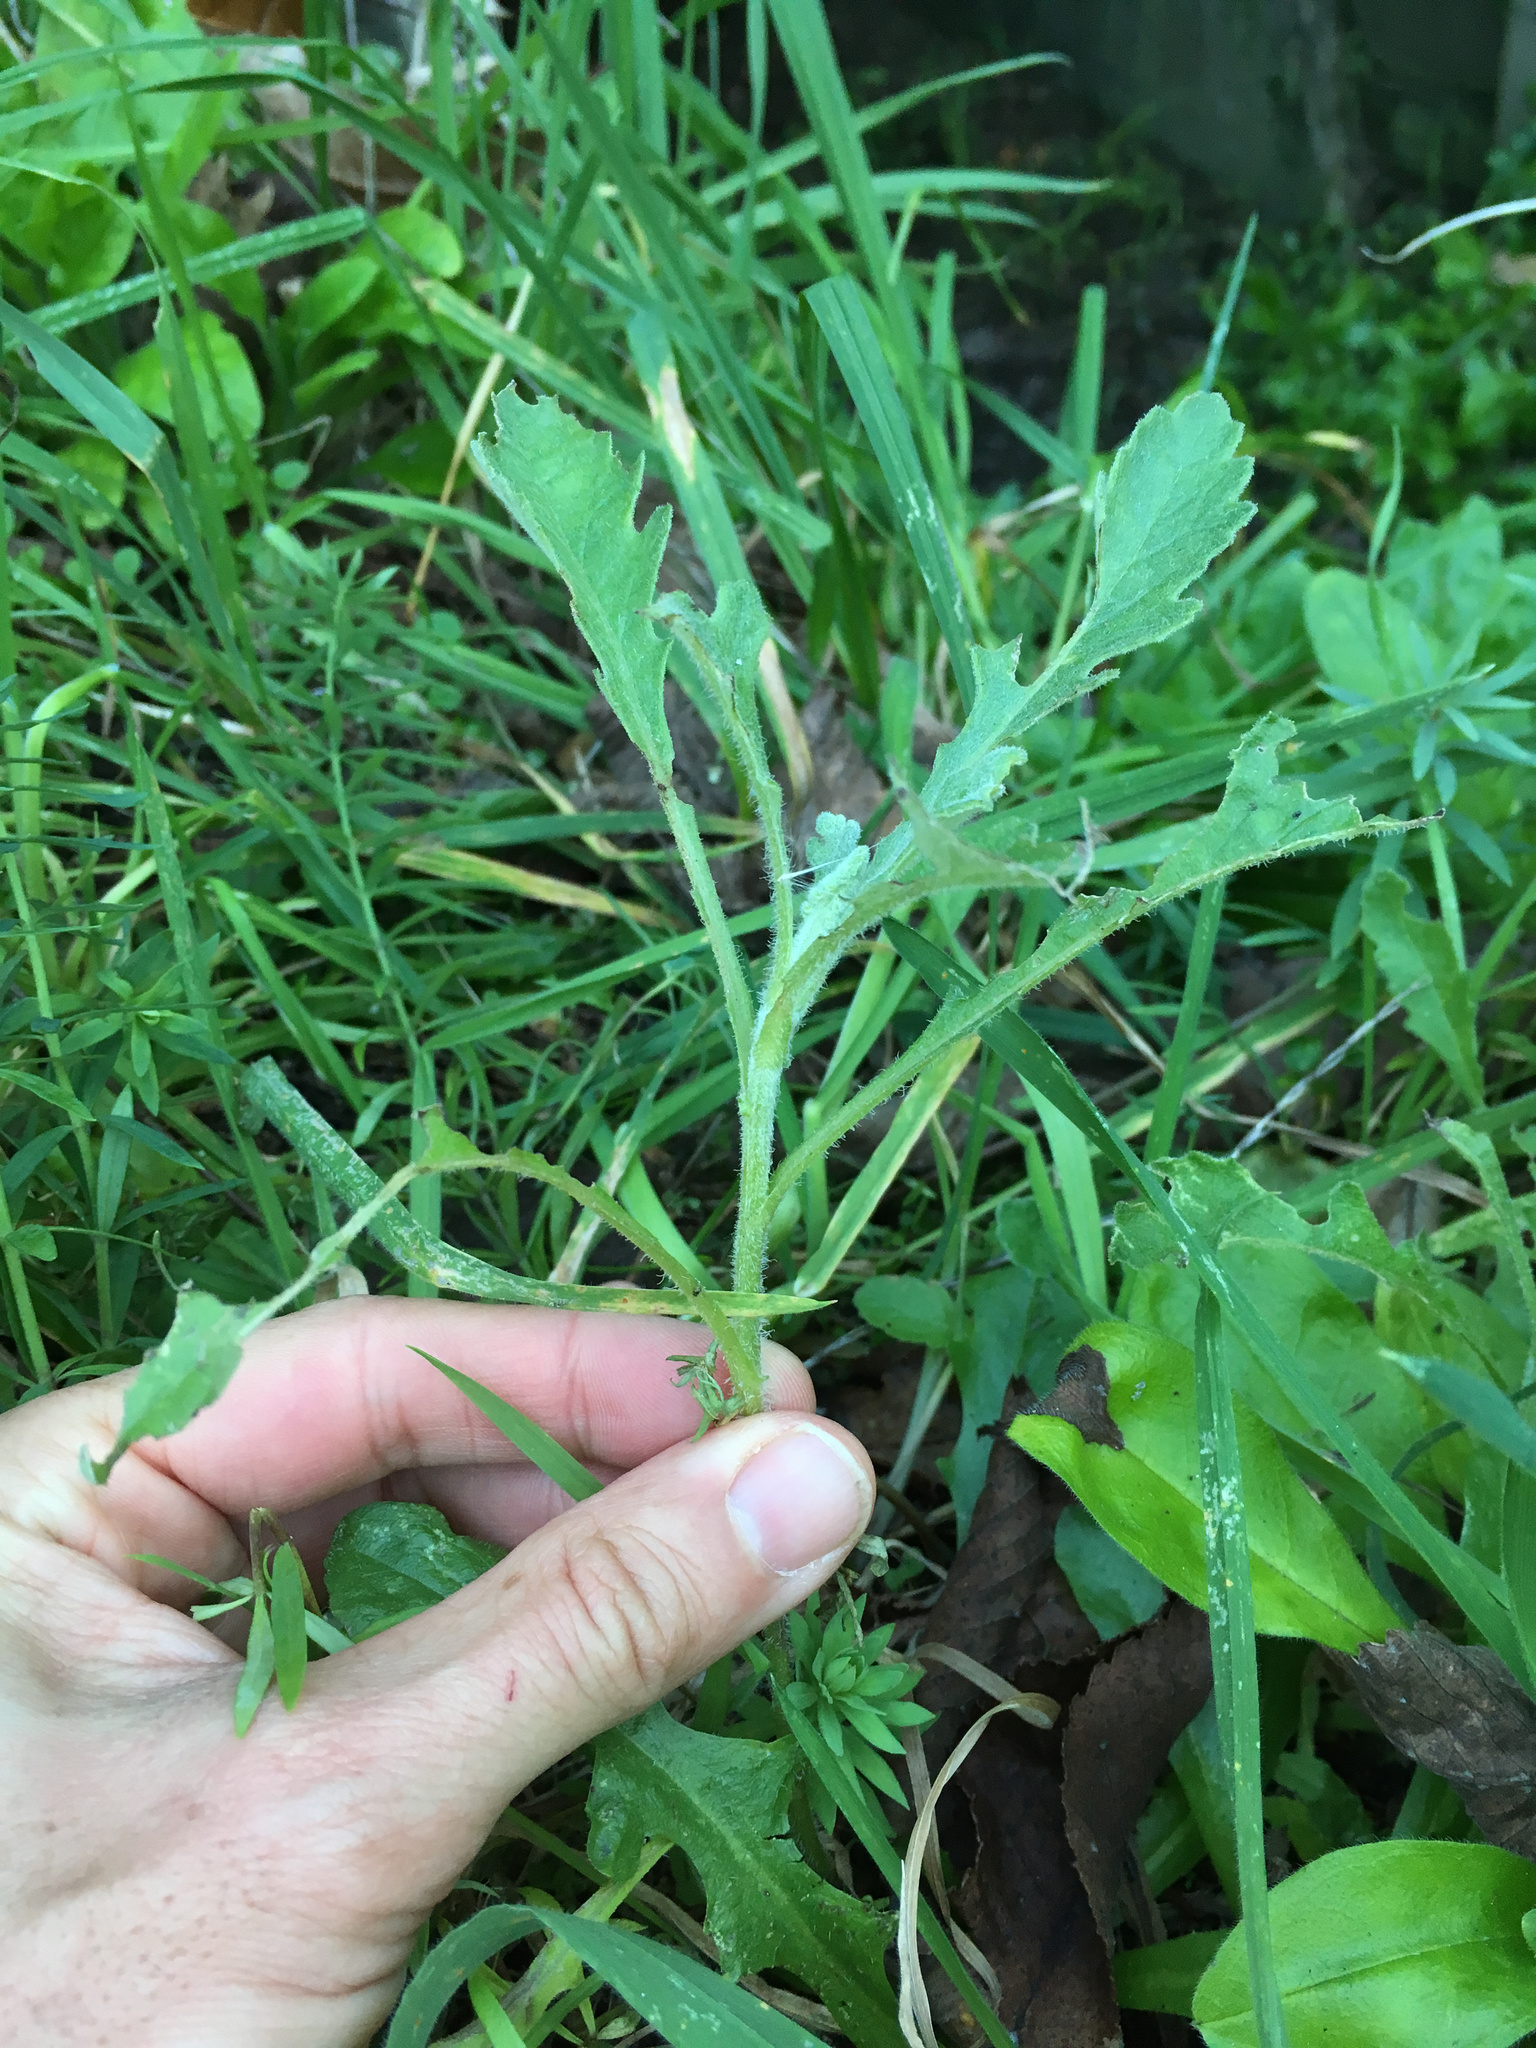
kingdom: Plantae
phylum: Tracheophyta
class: Magnoliopsida
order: Asterales
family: Asteraceae
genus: Senecio
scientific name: Senecio glomeratus
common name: Cutleaf burnweed
